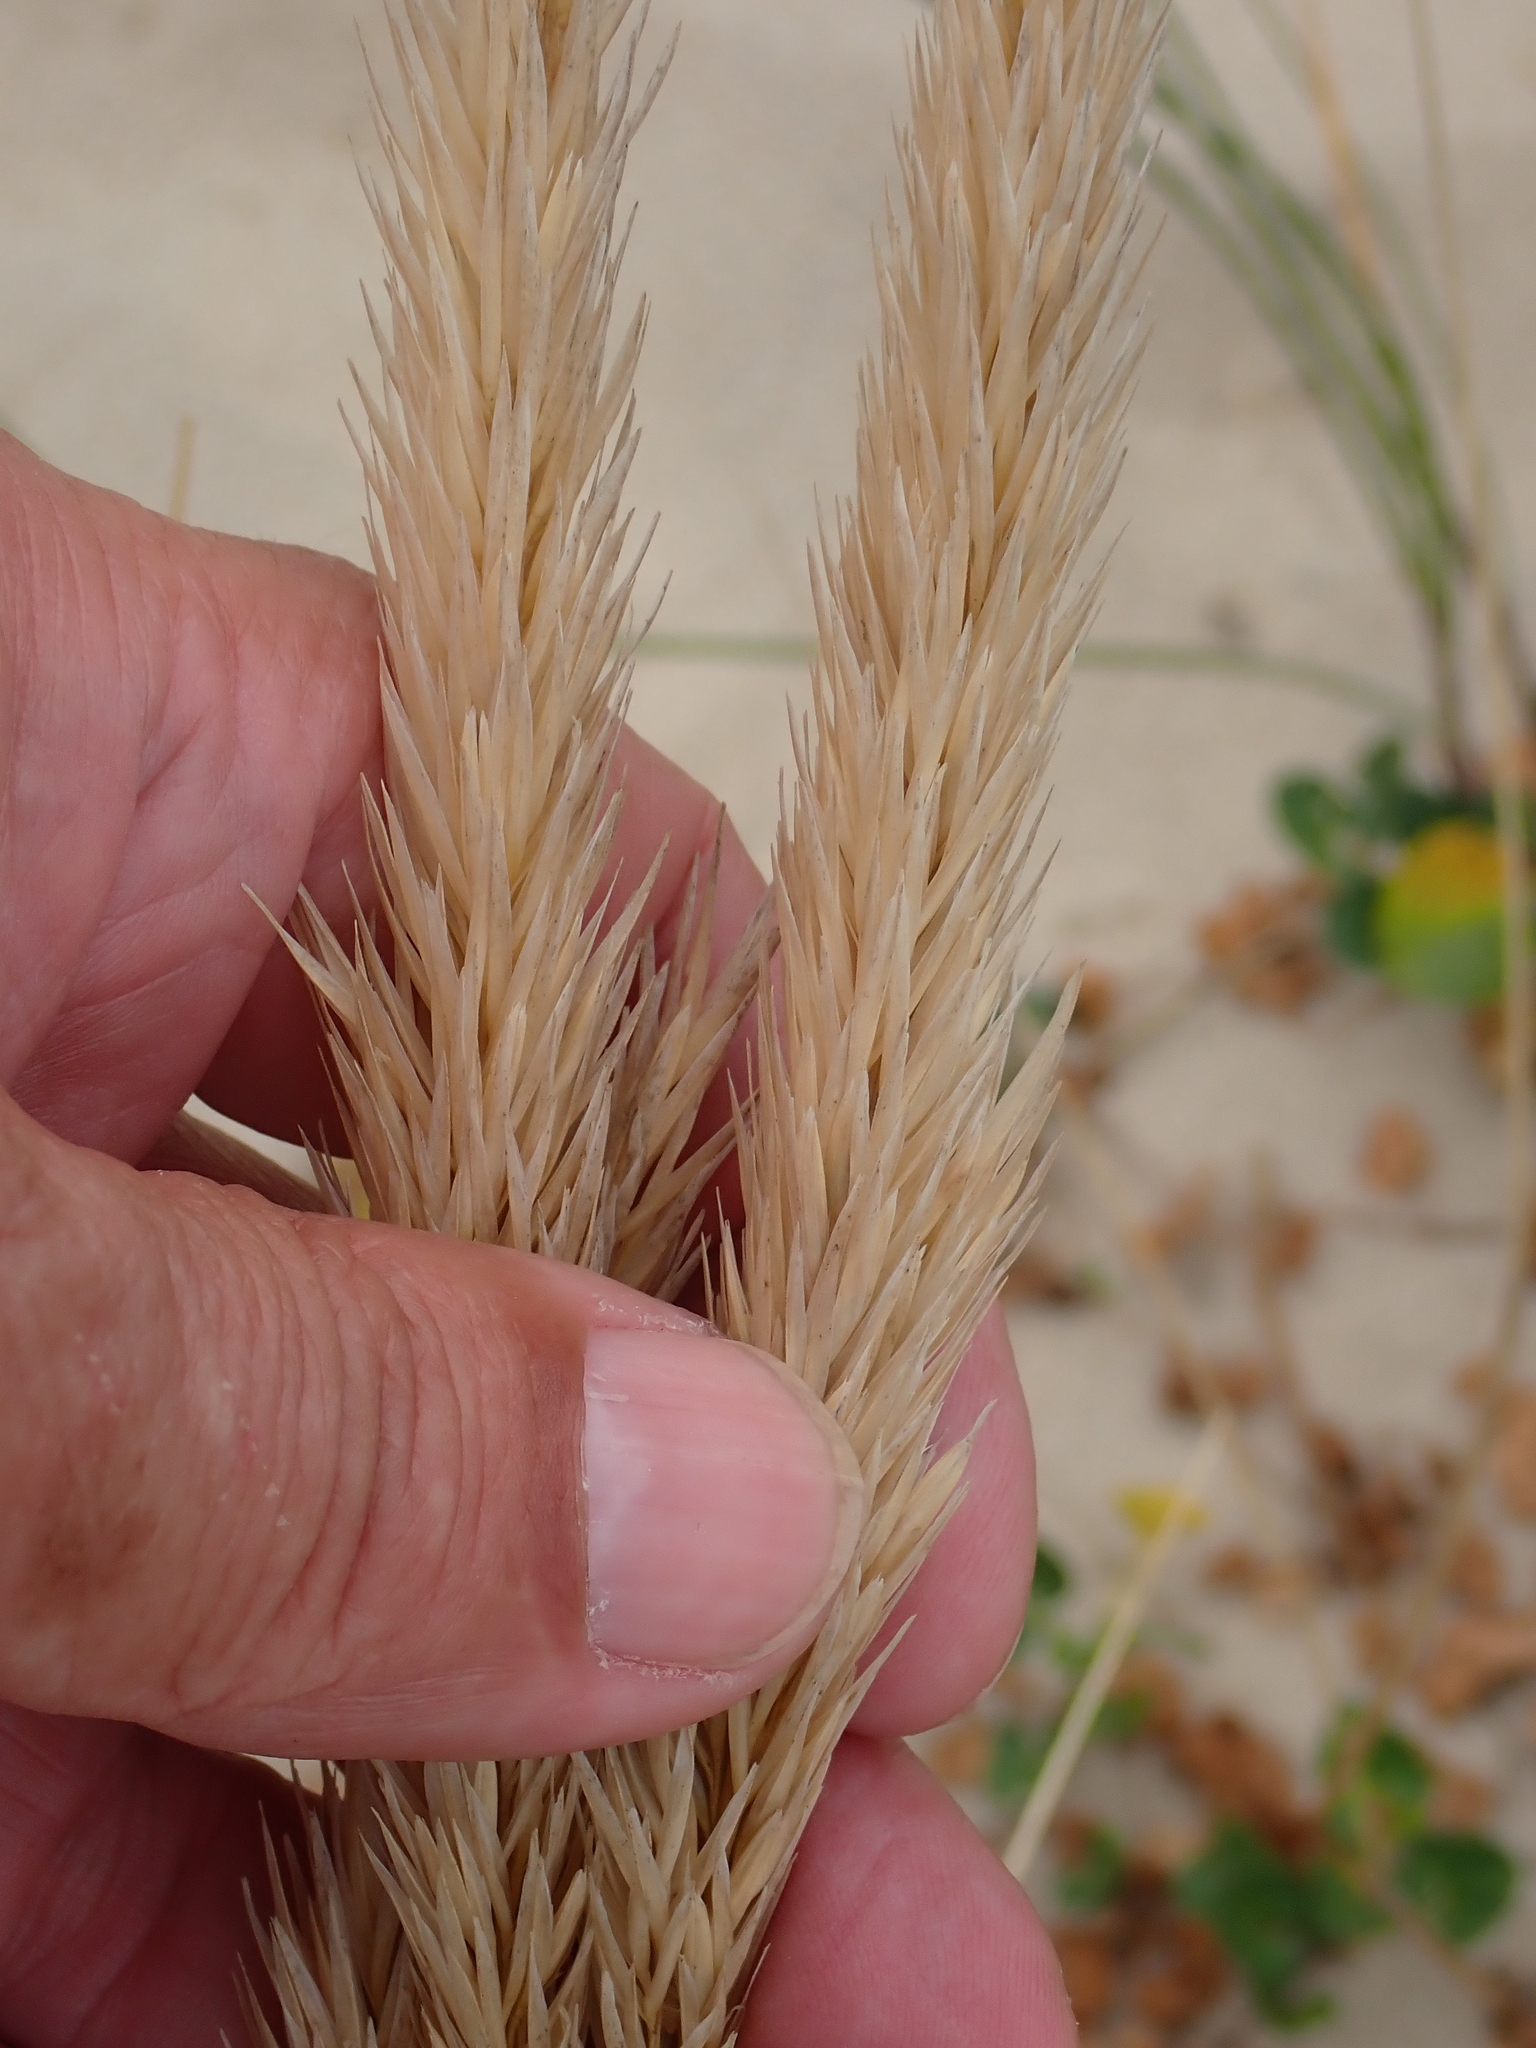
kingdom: Plantae
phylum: Tracheophyta
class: Liliopsida
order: Poales
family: Poaceae
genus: Calamagrostis
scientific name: Calamagrostis arenaria
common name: European beachgrass
